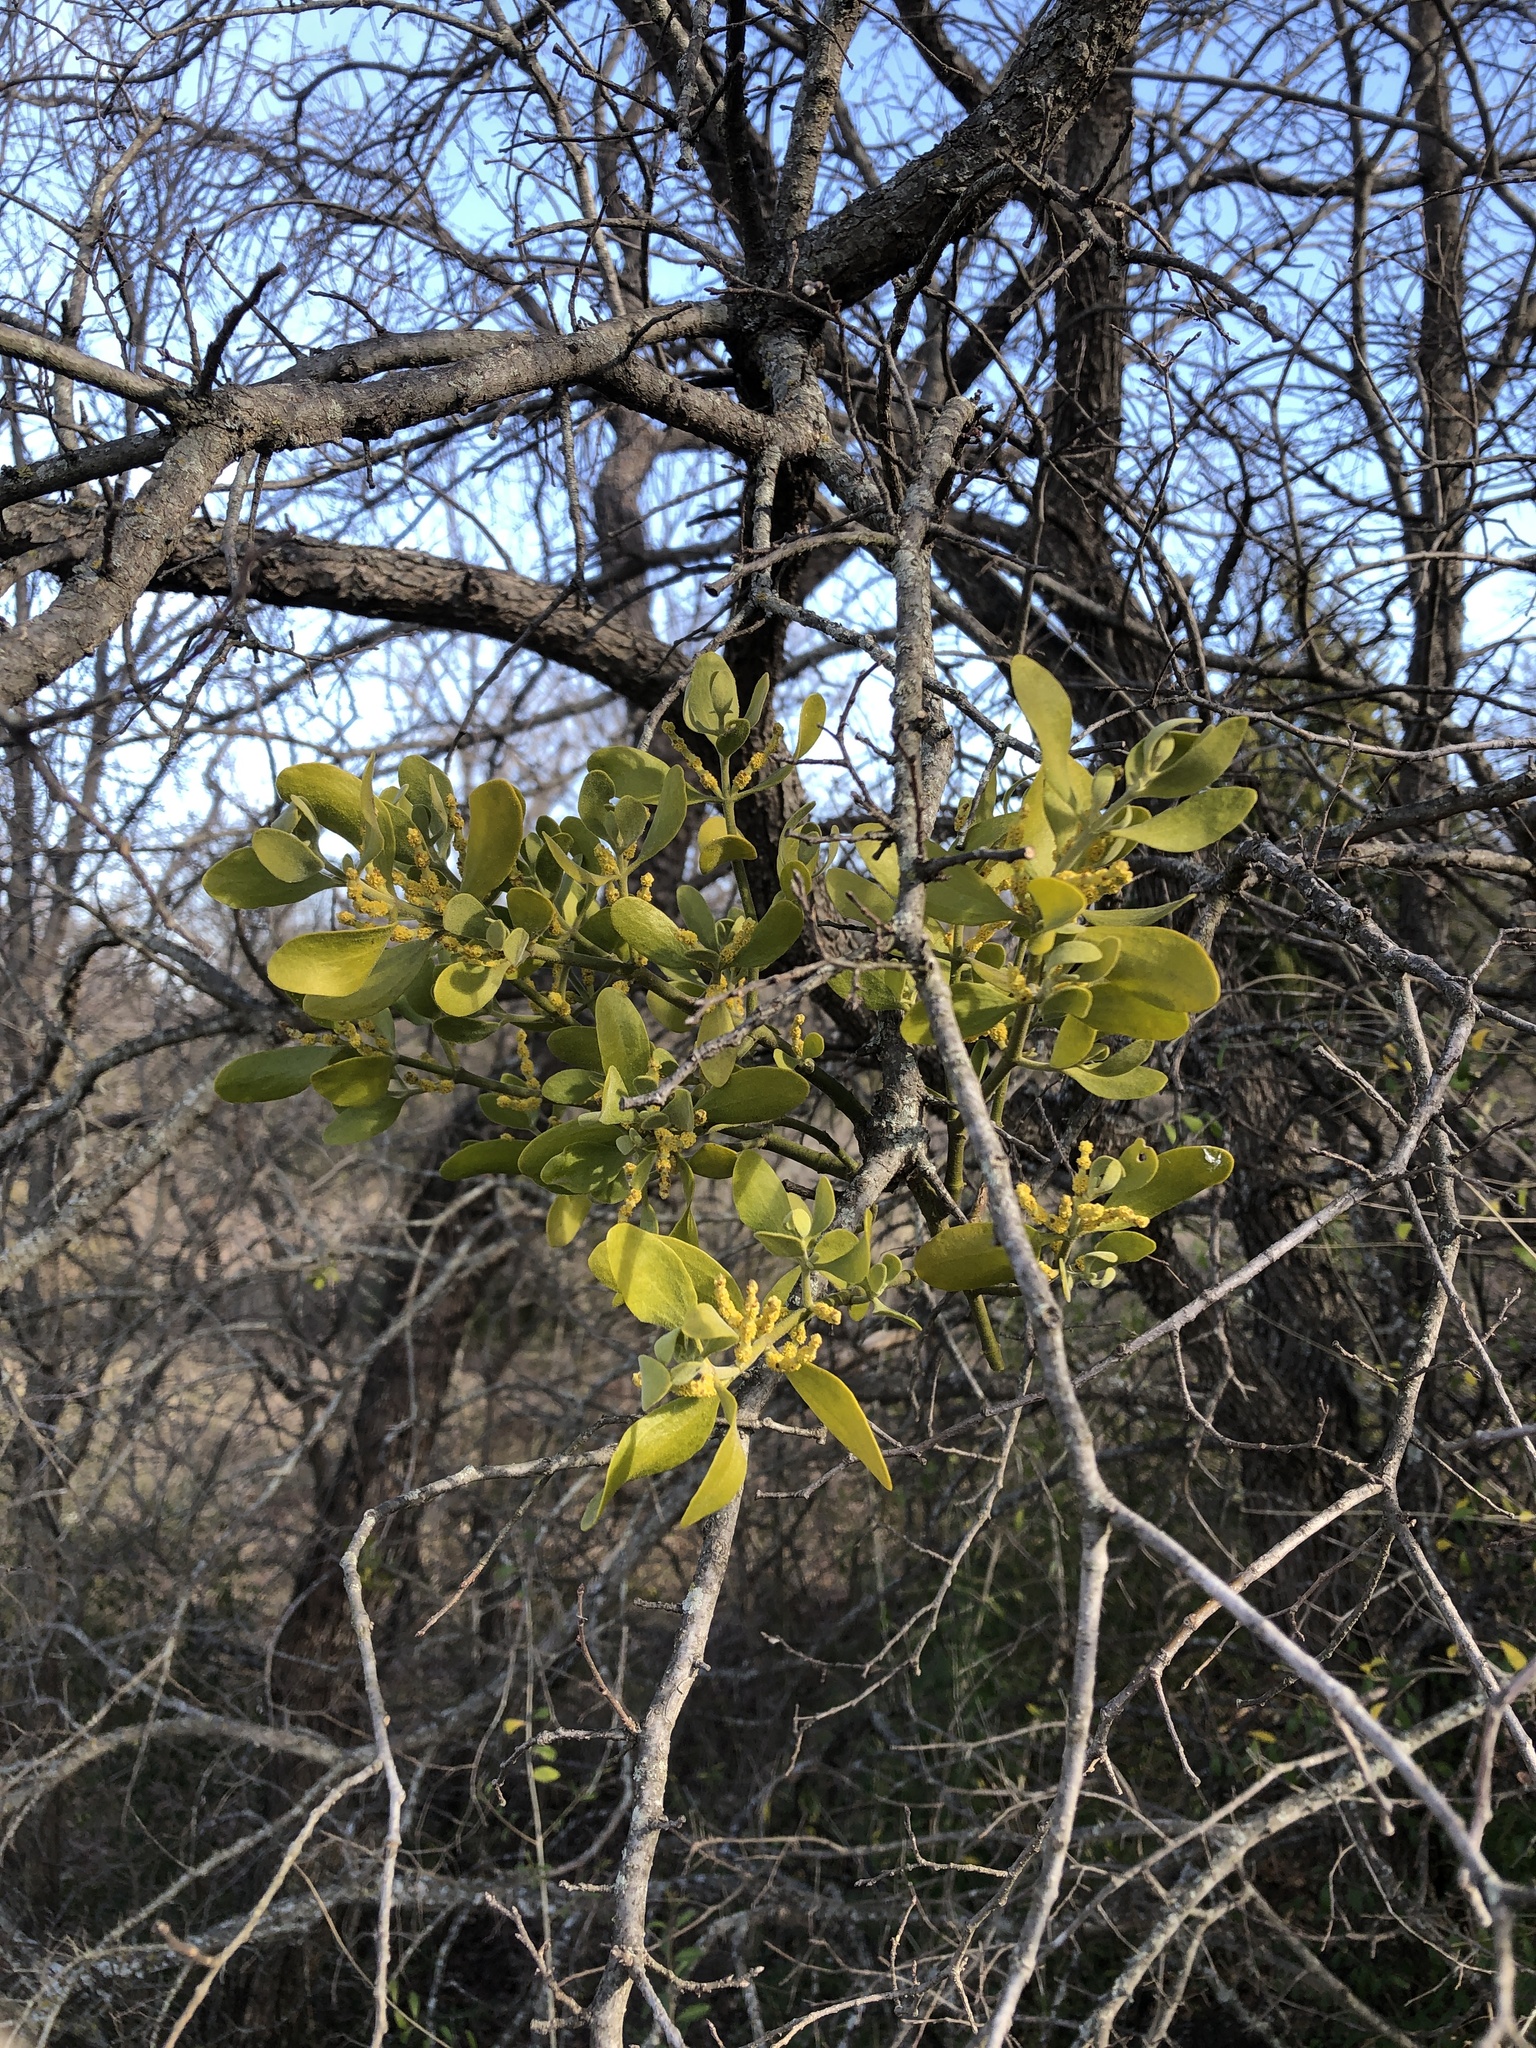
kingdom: Plantae
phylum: Tracheophyta
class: Magnoliopsida
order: Santalales
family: Viscaceae
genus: Phoradendron
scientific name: Phoradendron leucarpum
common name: Pacific mistletoe
